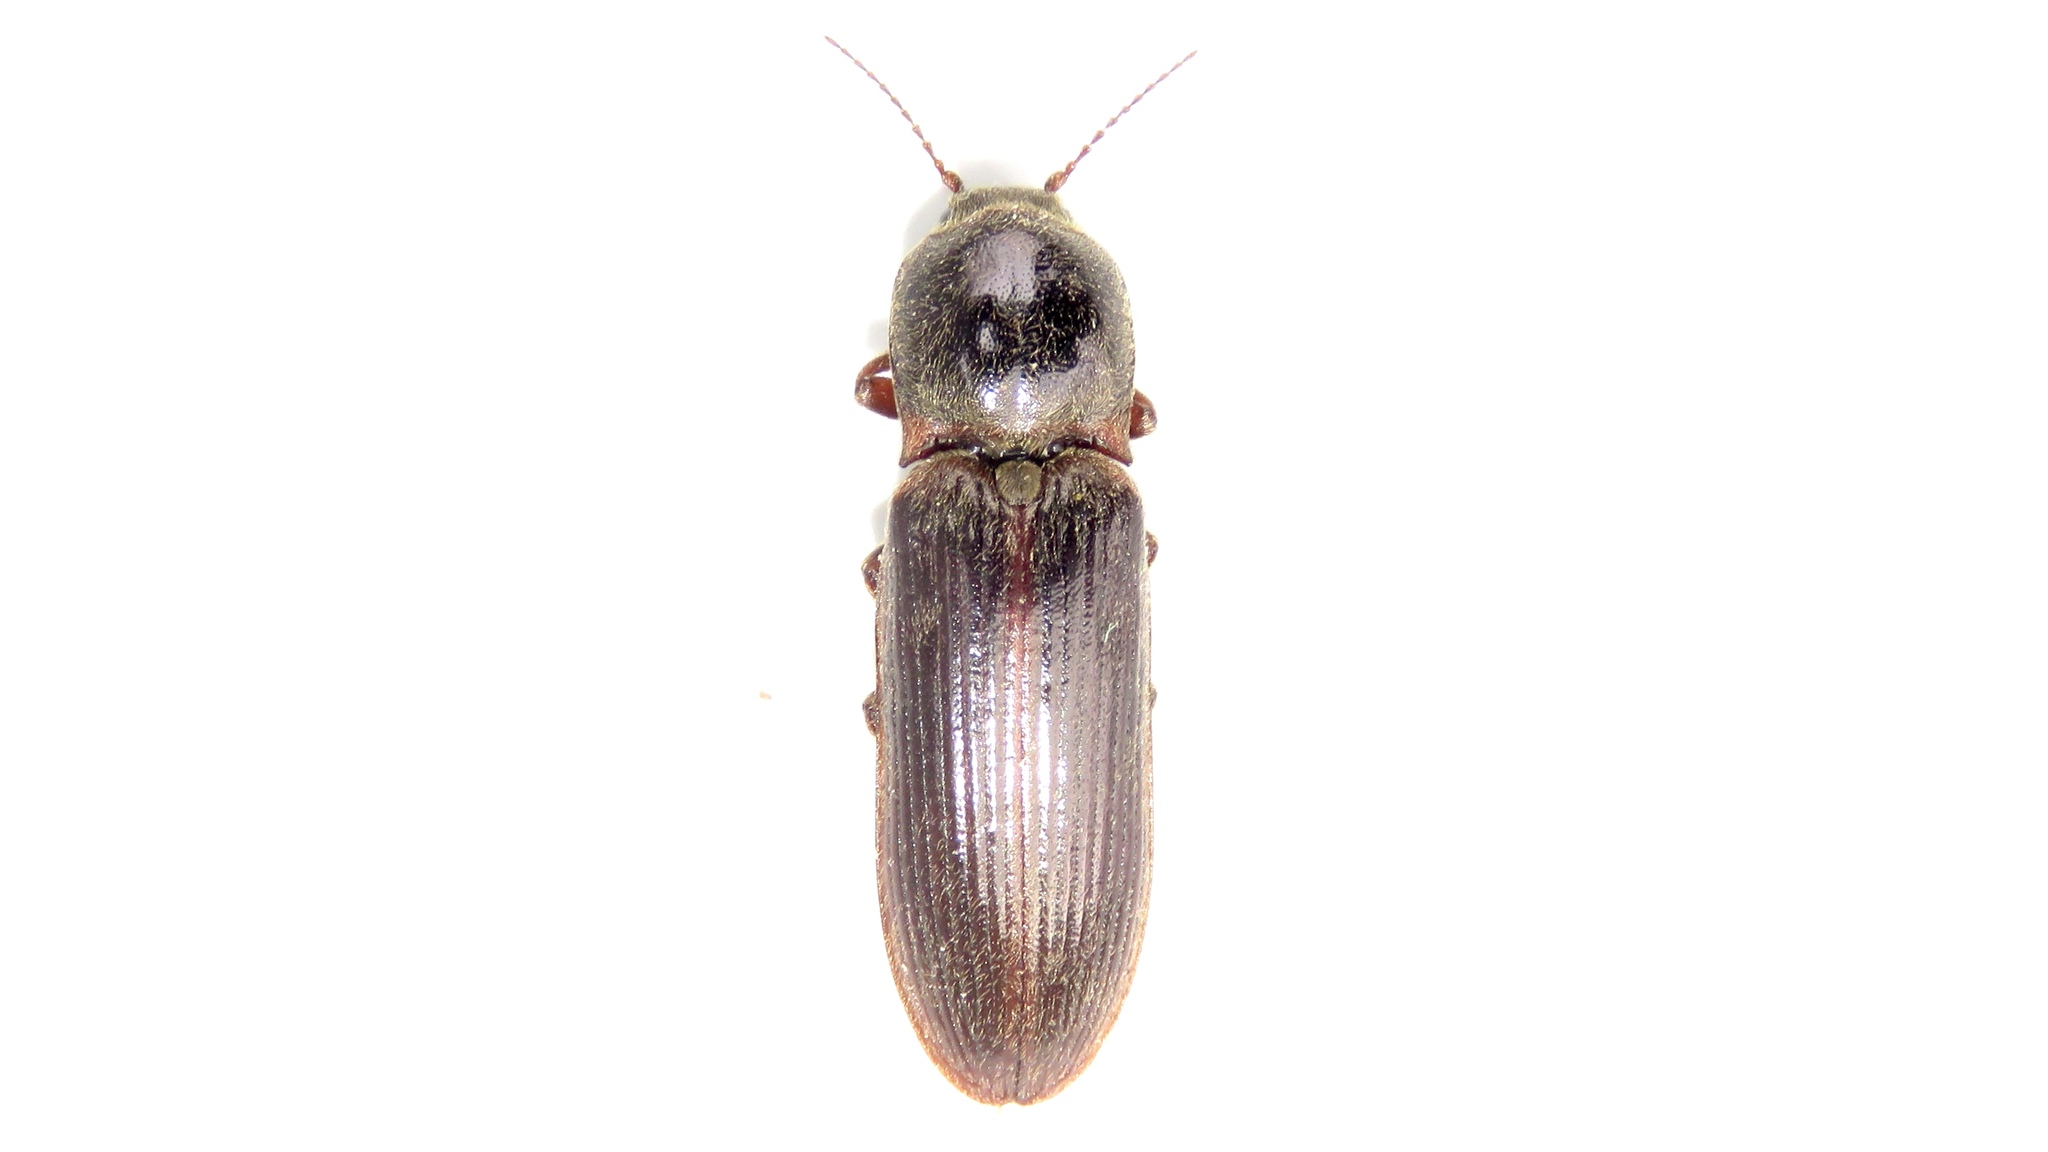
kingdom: Animalia
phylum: Arthropoda
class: Insecta
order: Coleoptera
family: Elateridae
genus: Sylvanelater
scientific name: Sylvanelater cylindriformis
